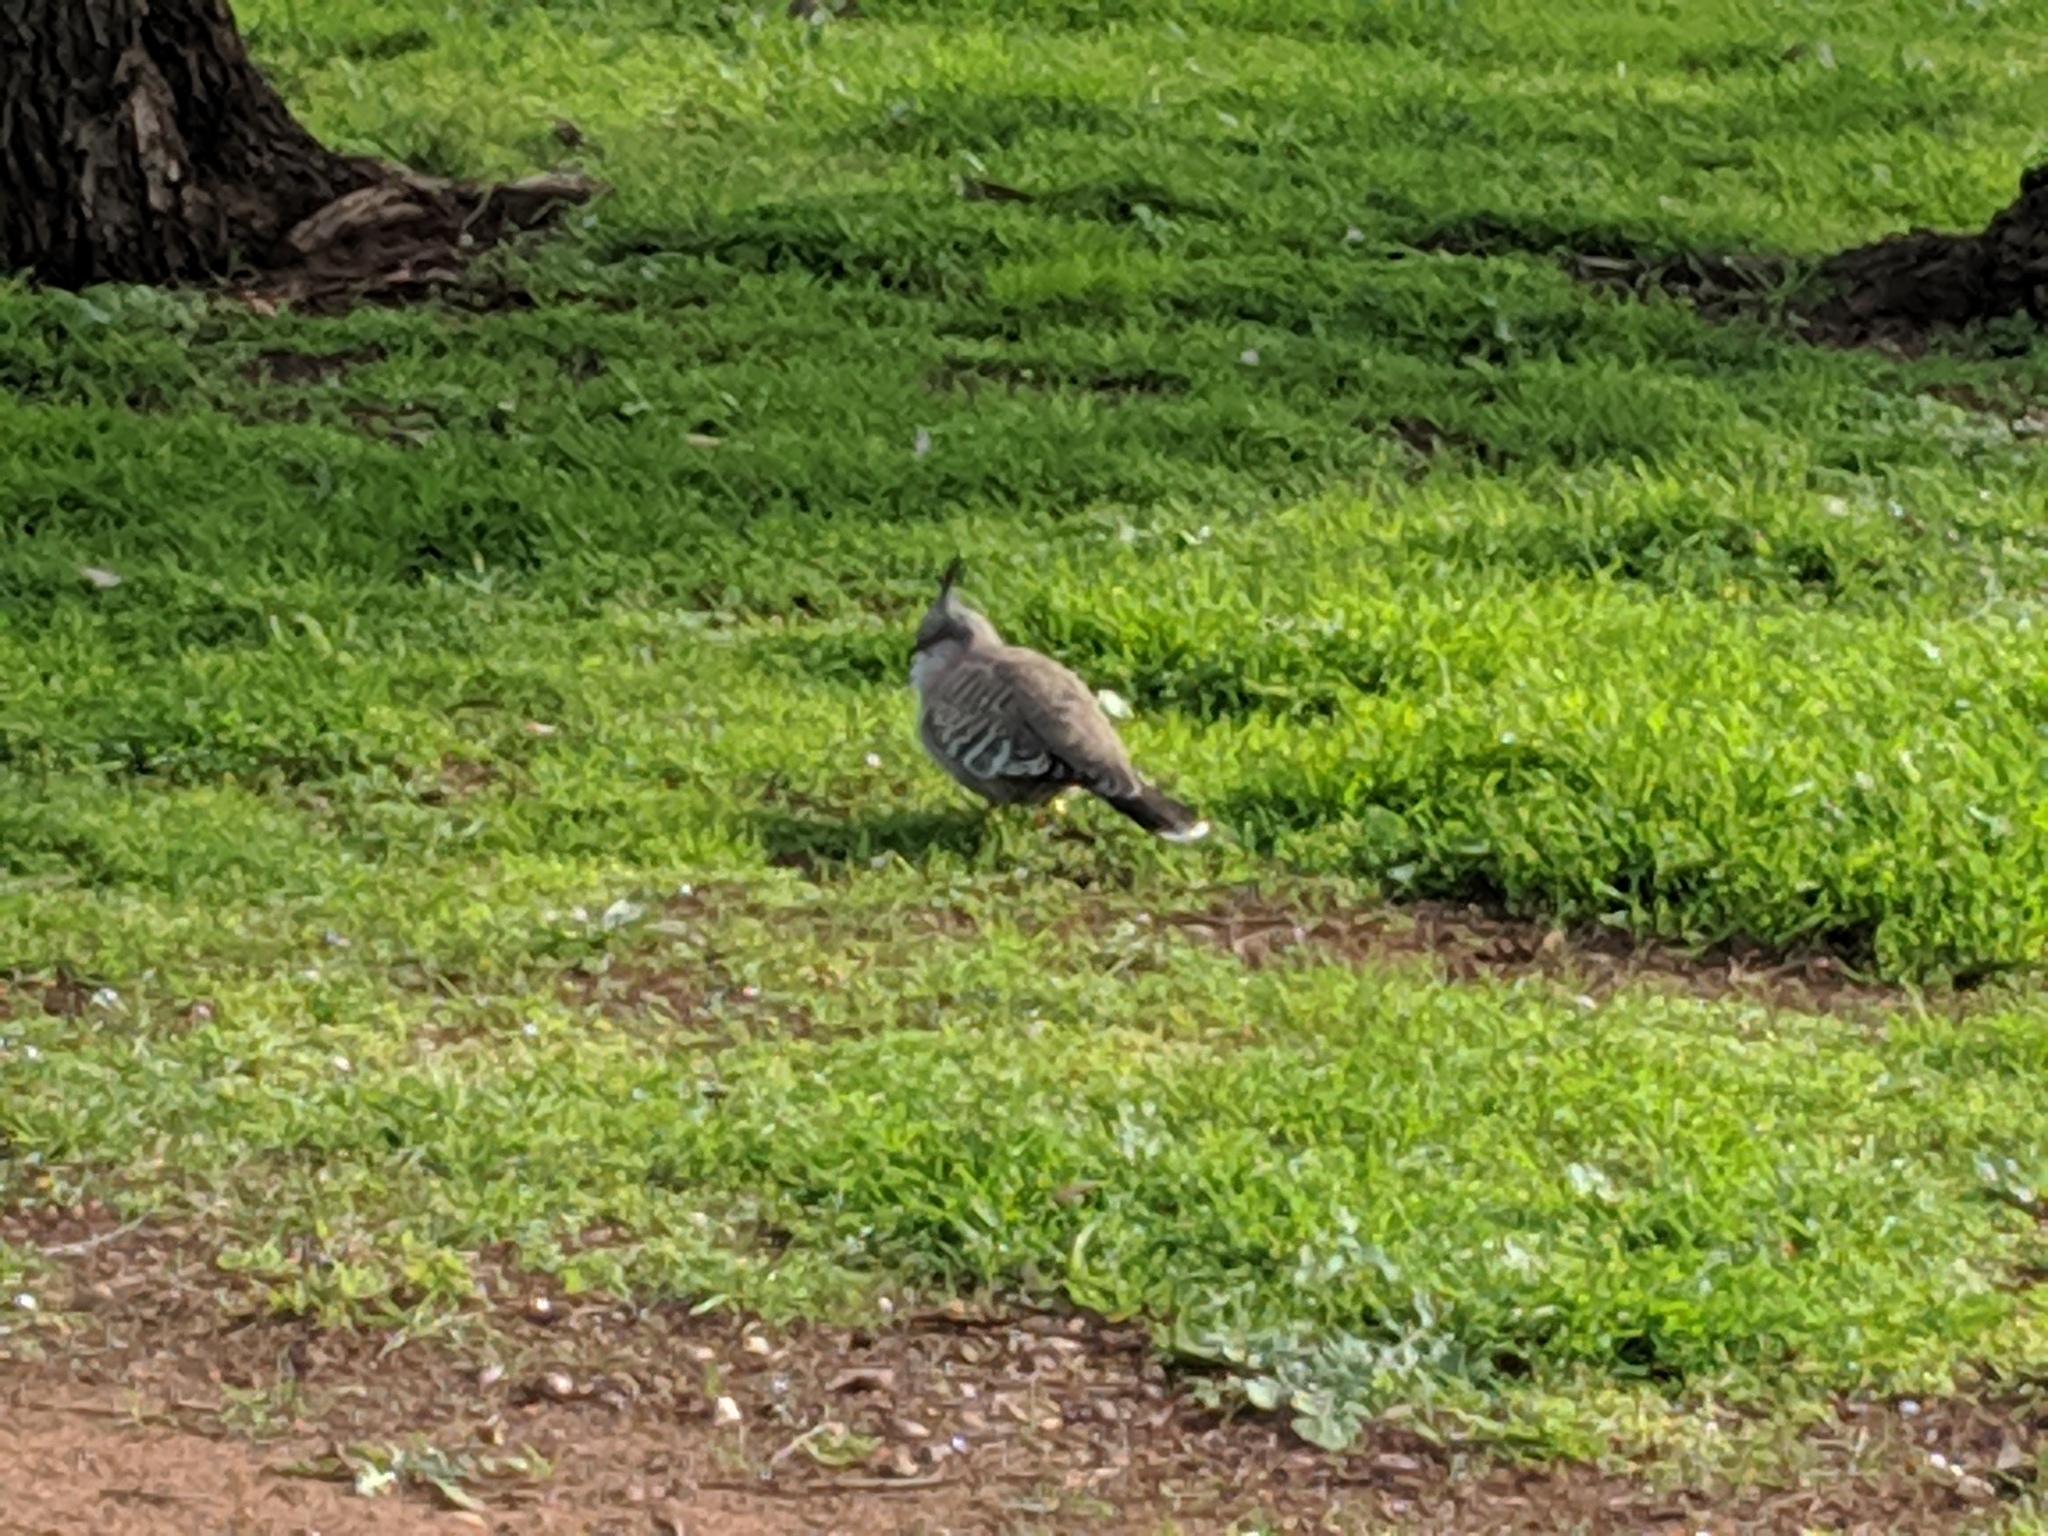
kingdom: Animalia
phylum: Chordata
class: Aves
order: Columbiformes
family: Columbidae
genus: Ocyphaps
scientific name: Ocyphaps lophotes
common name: Crested pigeon
